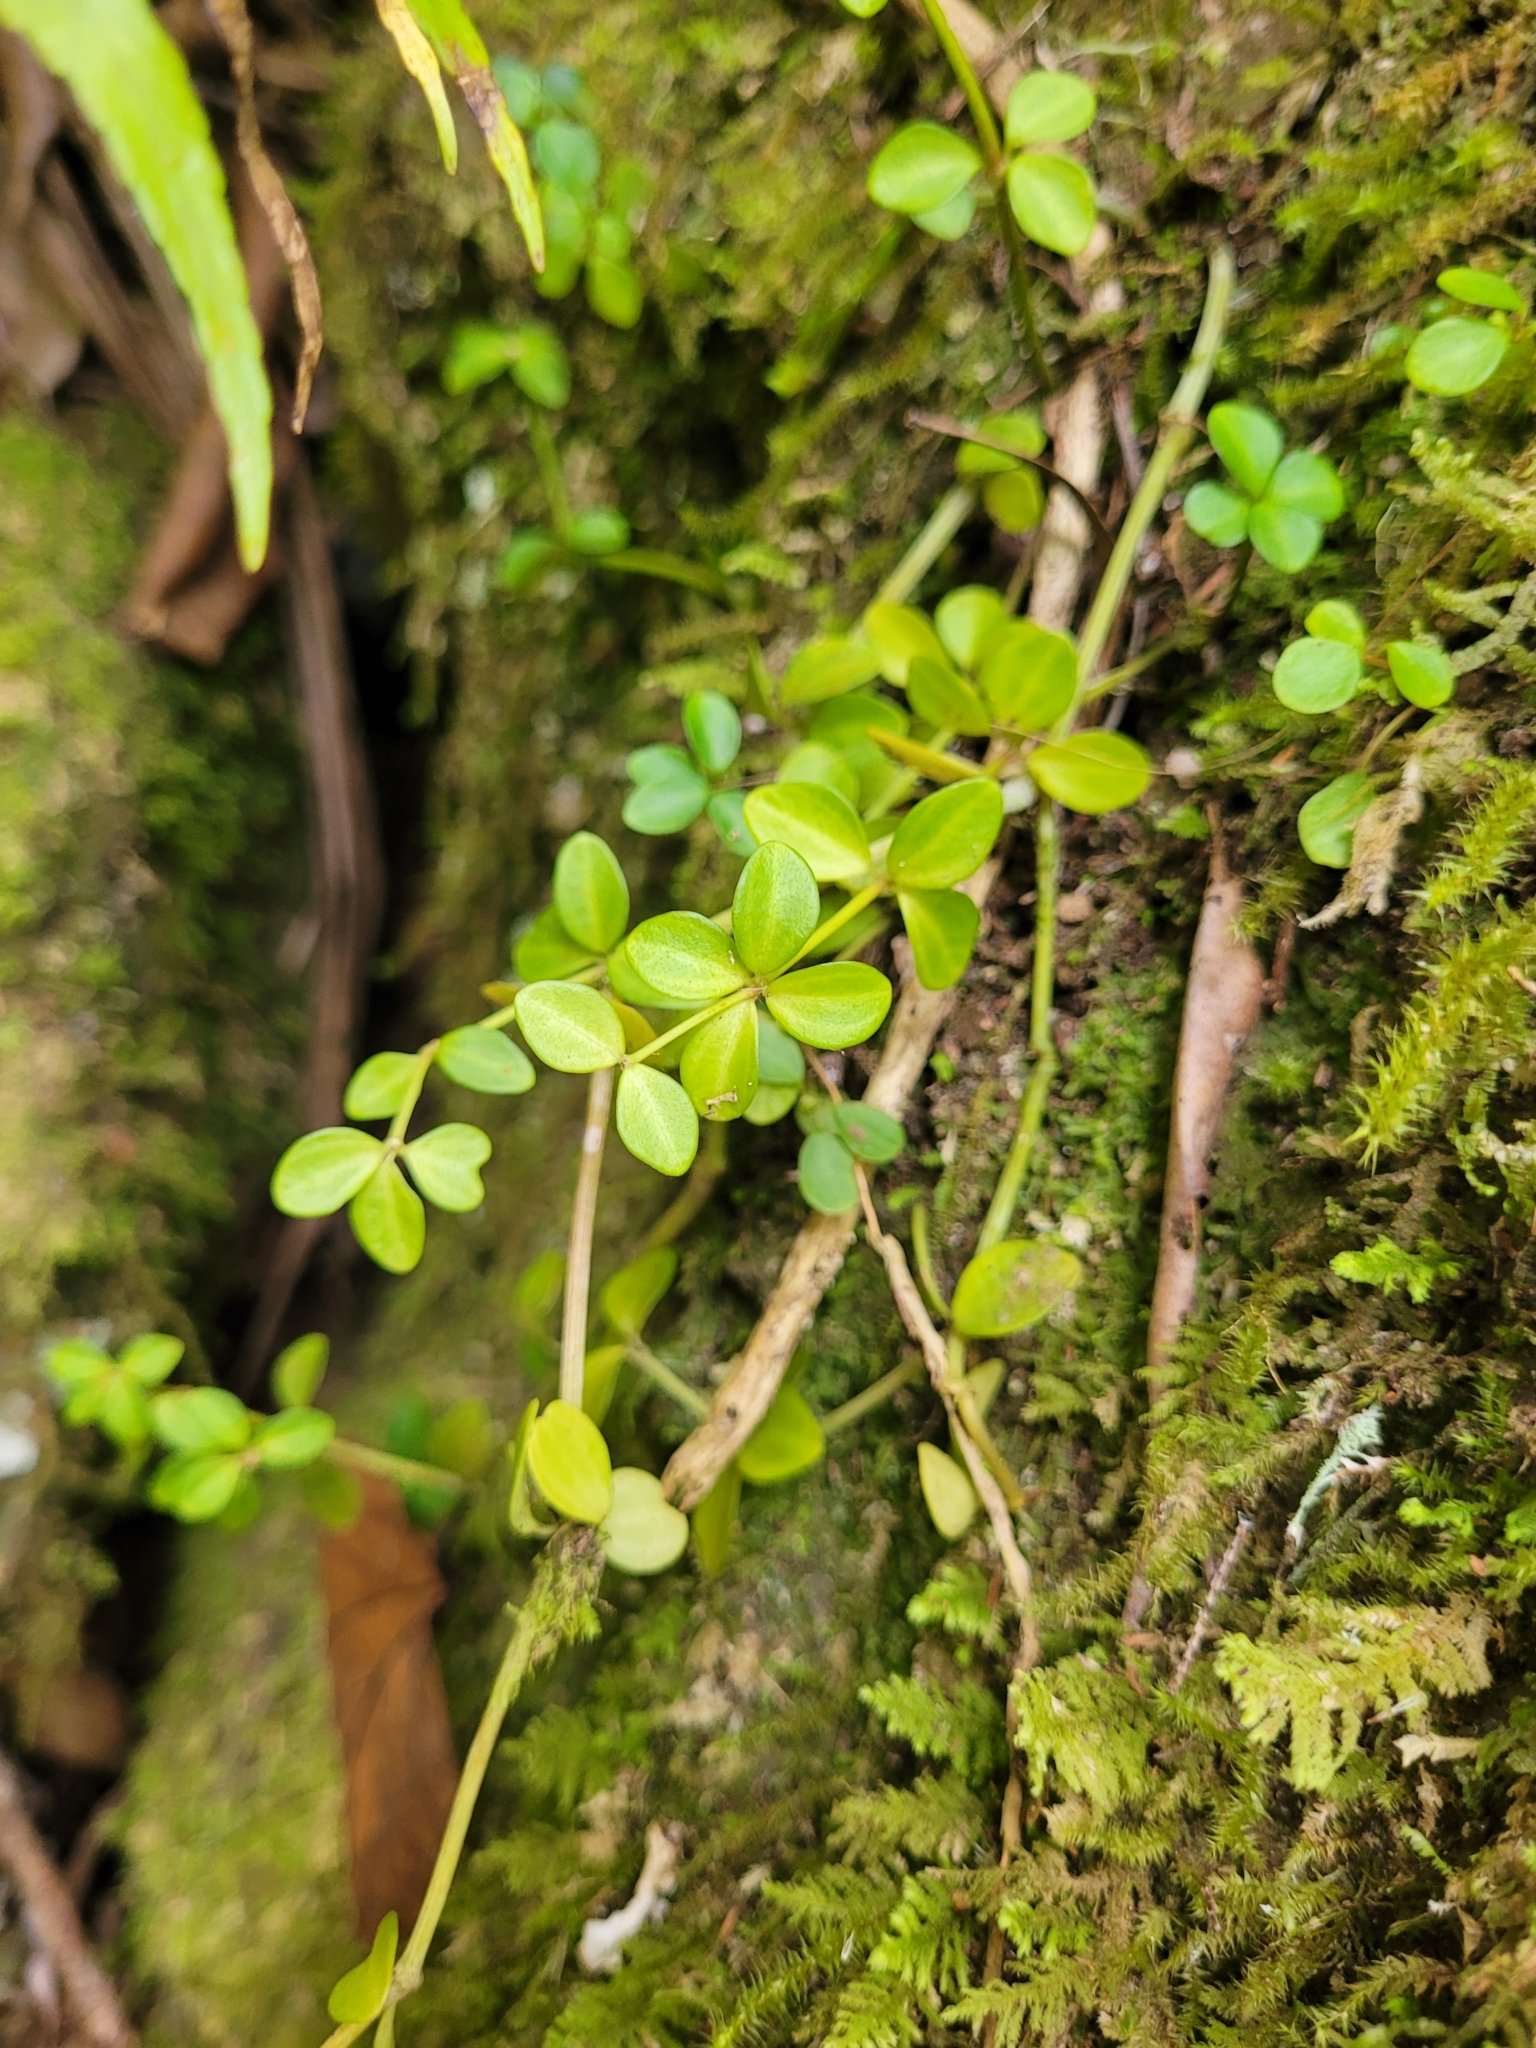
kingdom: Plantae
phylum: Tracheophyta
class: Magnoliopsida
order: Piperales
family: Piperaceae
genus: Peperomia
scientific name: Peperomia tetraphylla
